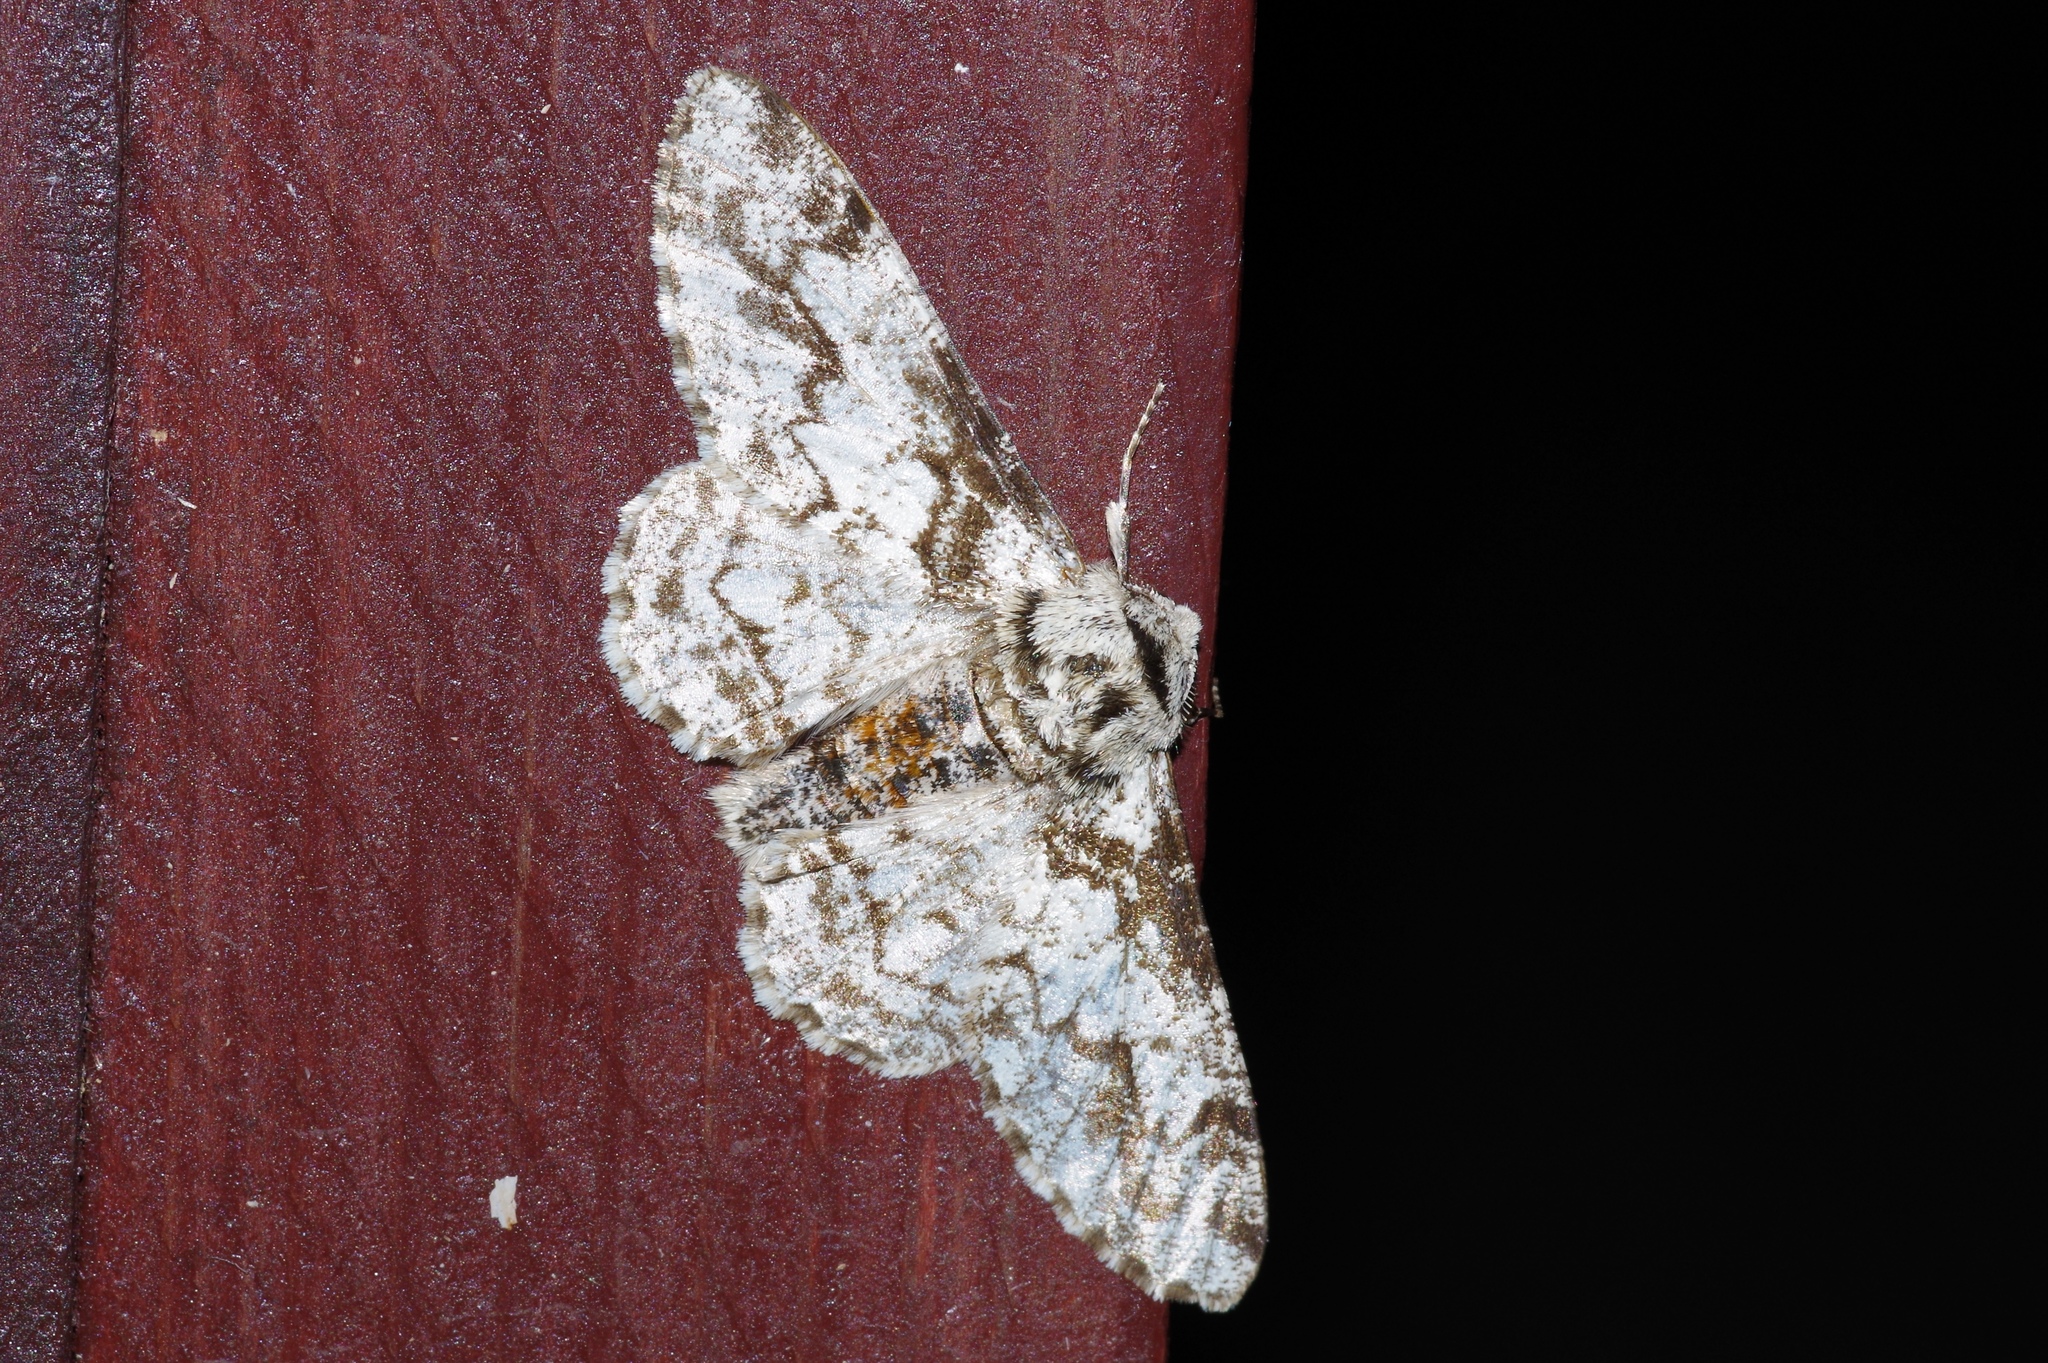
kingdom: Animalia
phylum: Arthropoda
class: Insecta
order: Lepidoptera
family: Geometridae
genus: Biston
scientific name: Biston marginata
